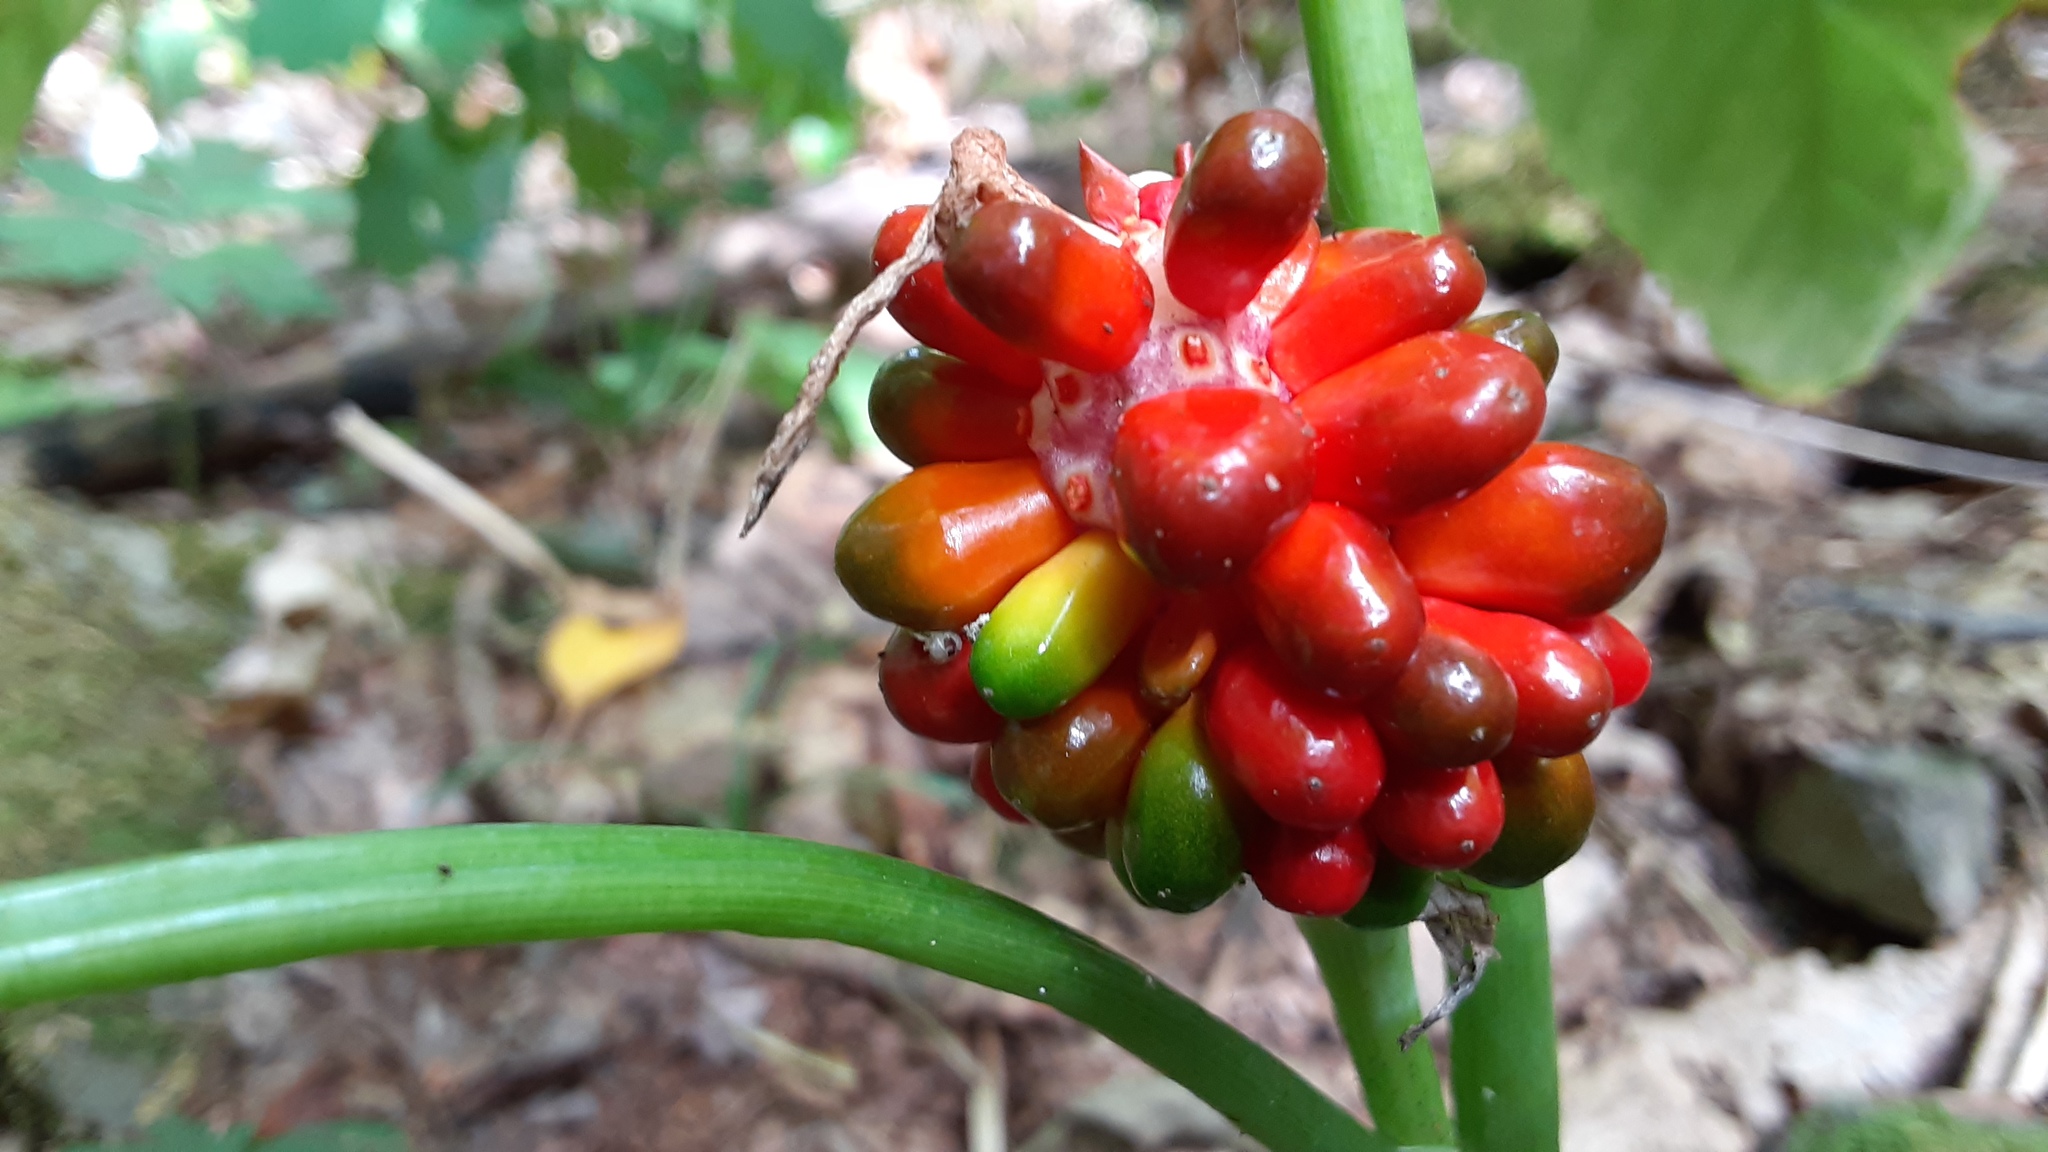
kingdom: Plantae
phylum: Tracheophyta
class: Liliopsida
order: Alismatales
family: Araceae
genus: Arisaema
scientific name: Arisaema triphyllum
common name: Jack-in-the-pulpit
